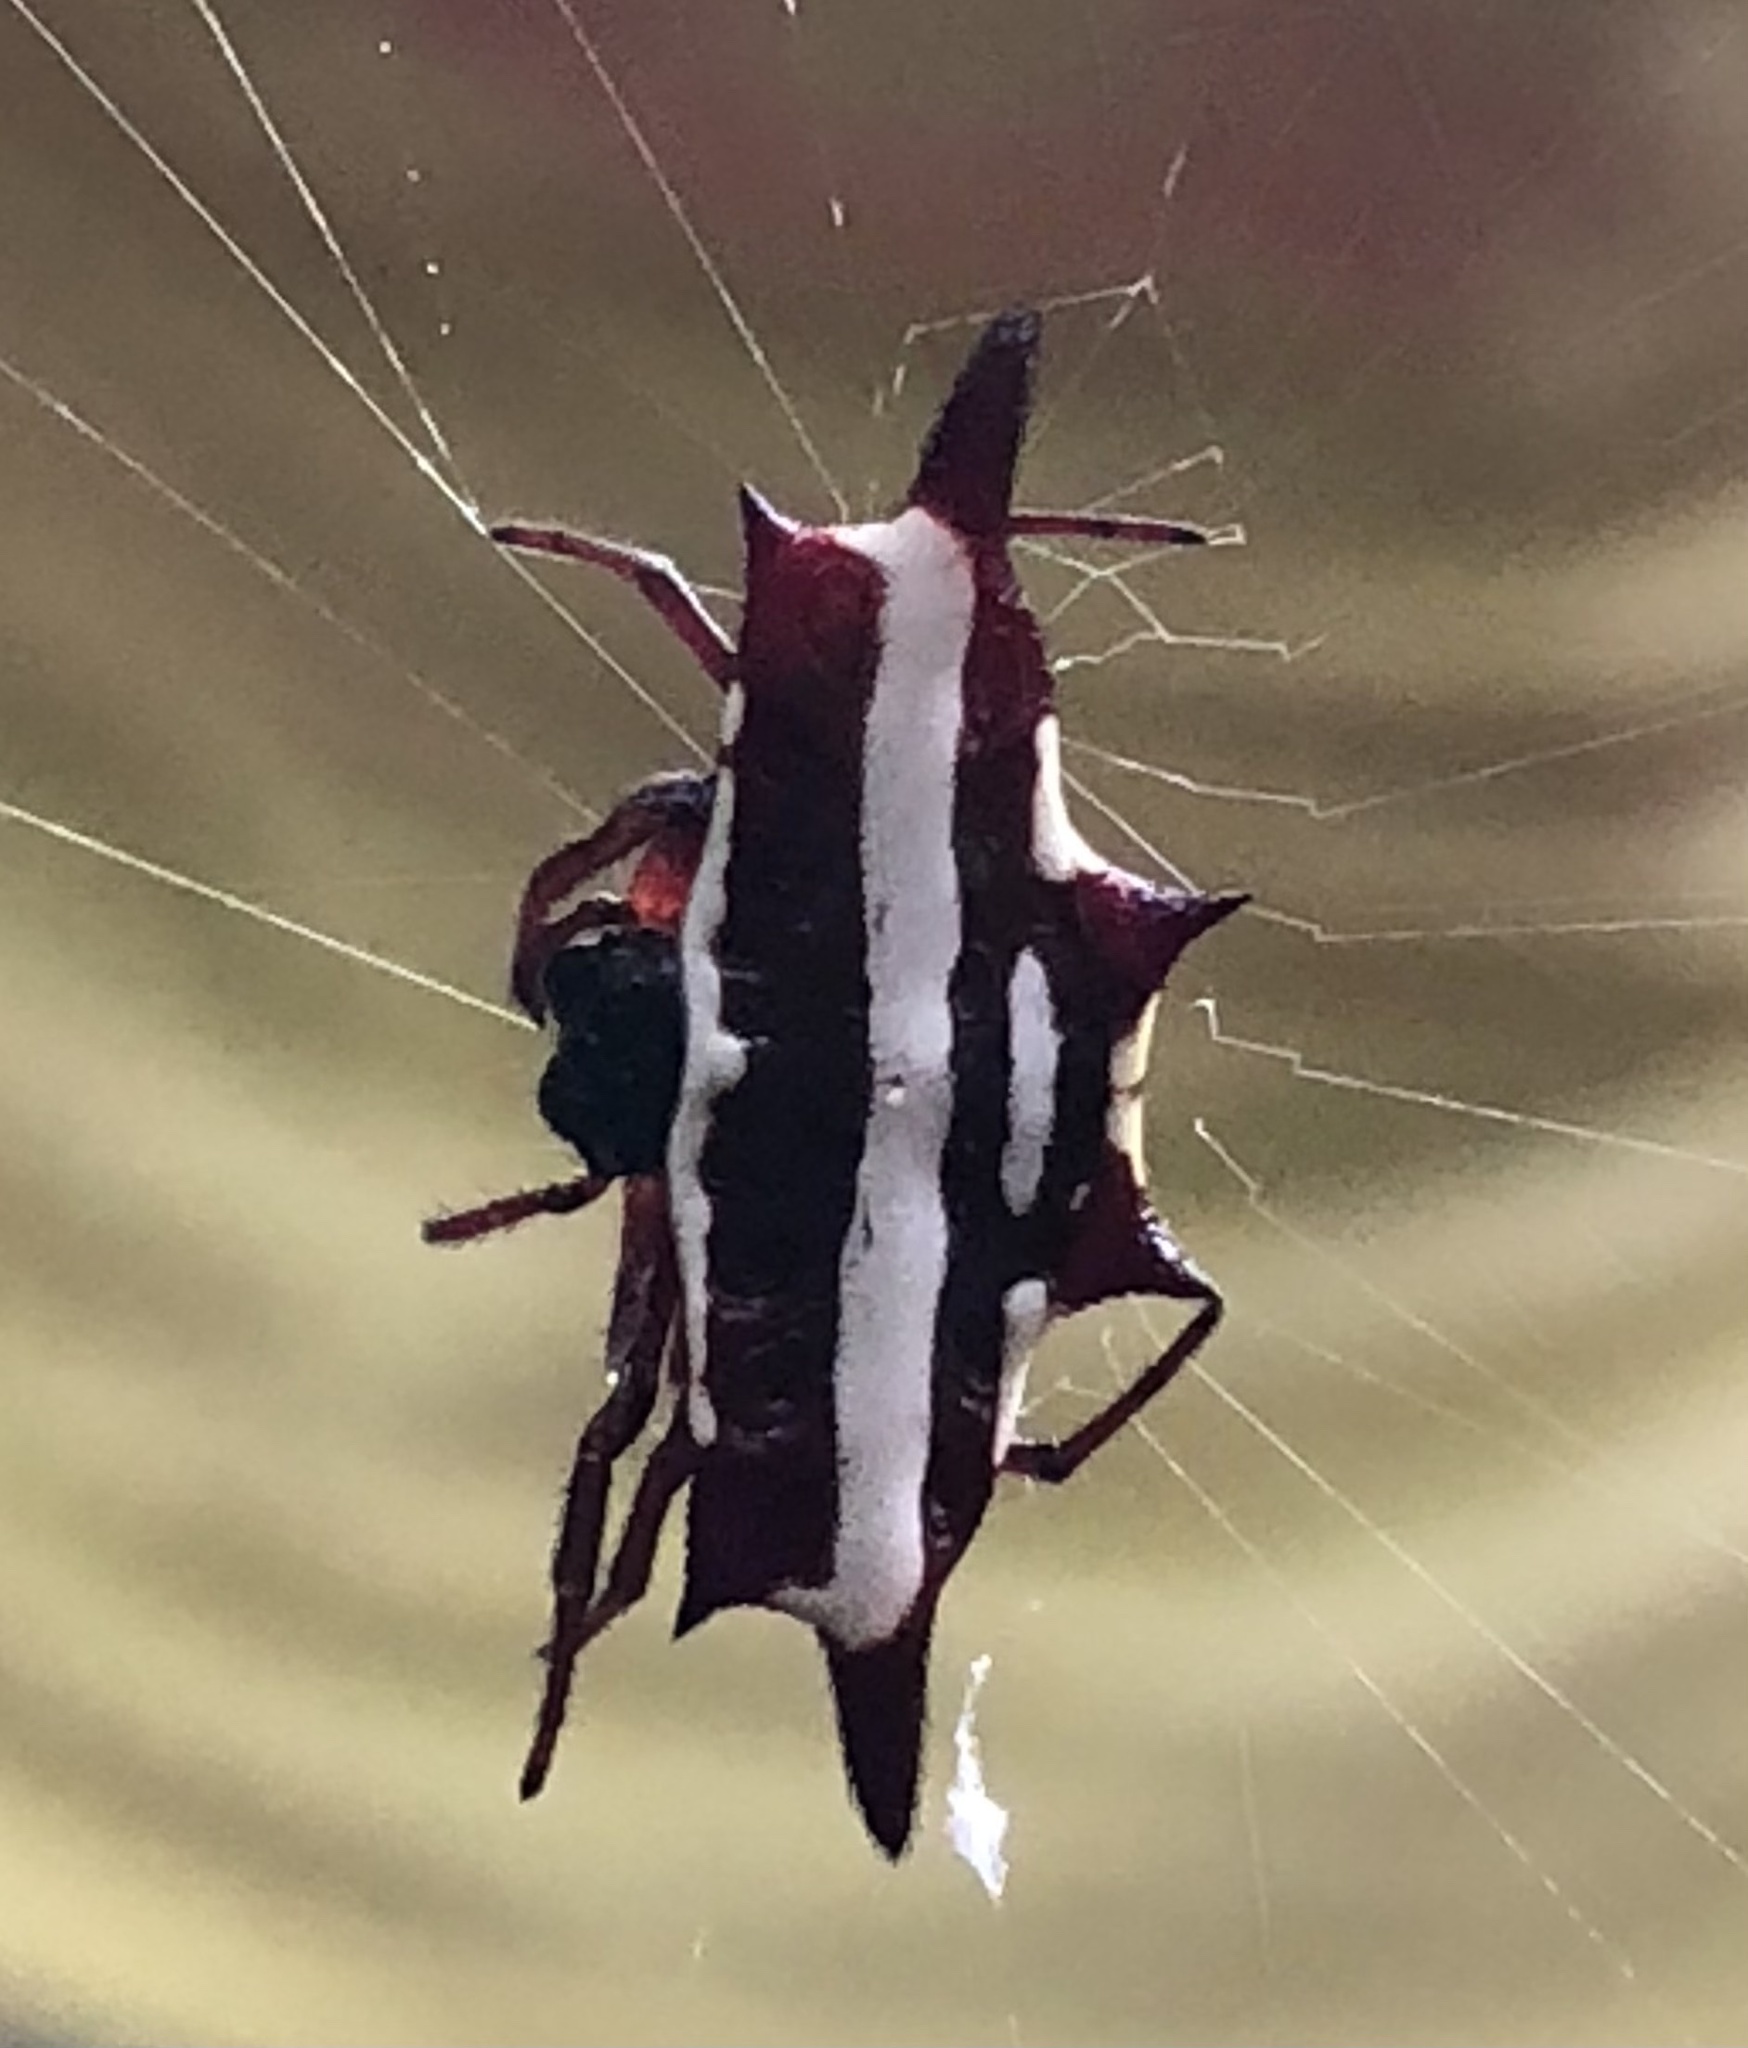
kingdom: Animalia
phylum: Arthropoda
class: Arachnida
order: Araneae
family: Araneidae
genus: Gasteracantha
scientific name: Gasteracantha fornicata
